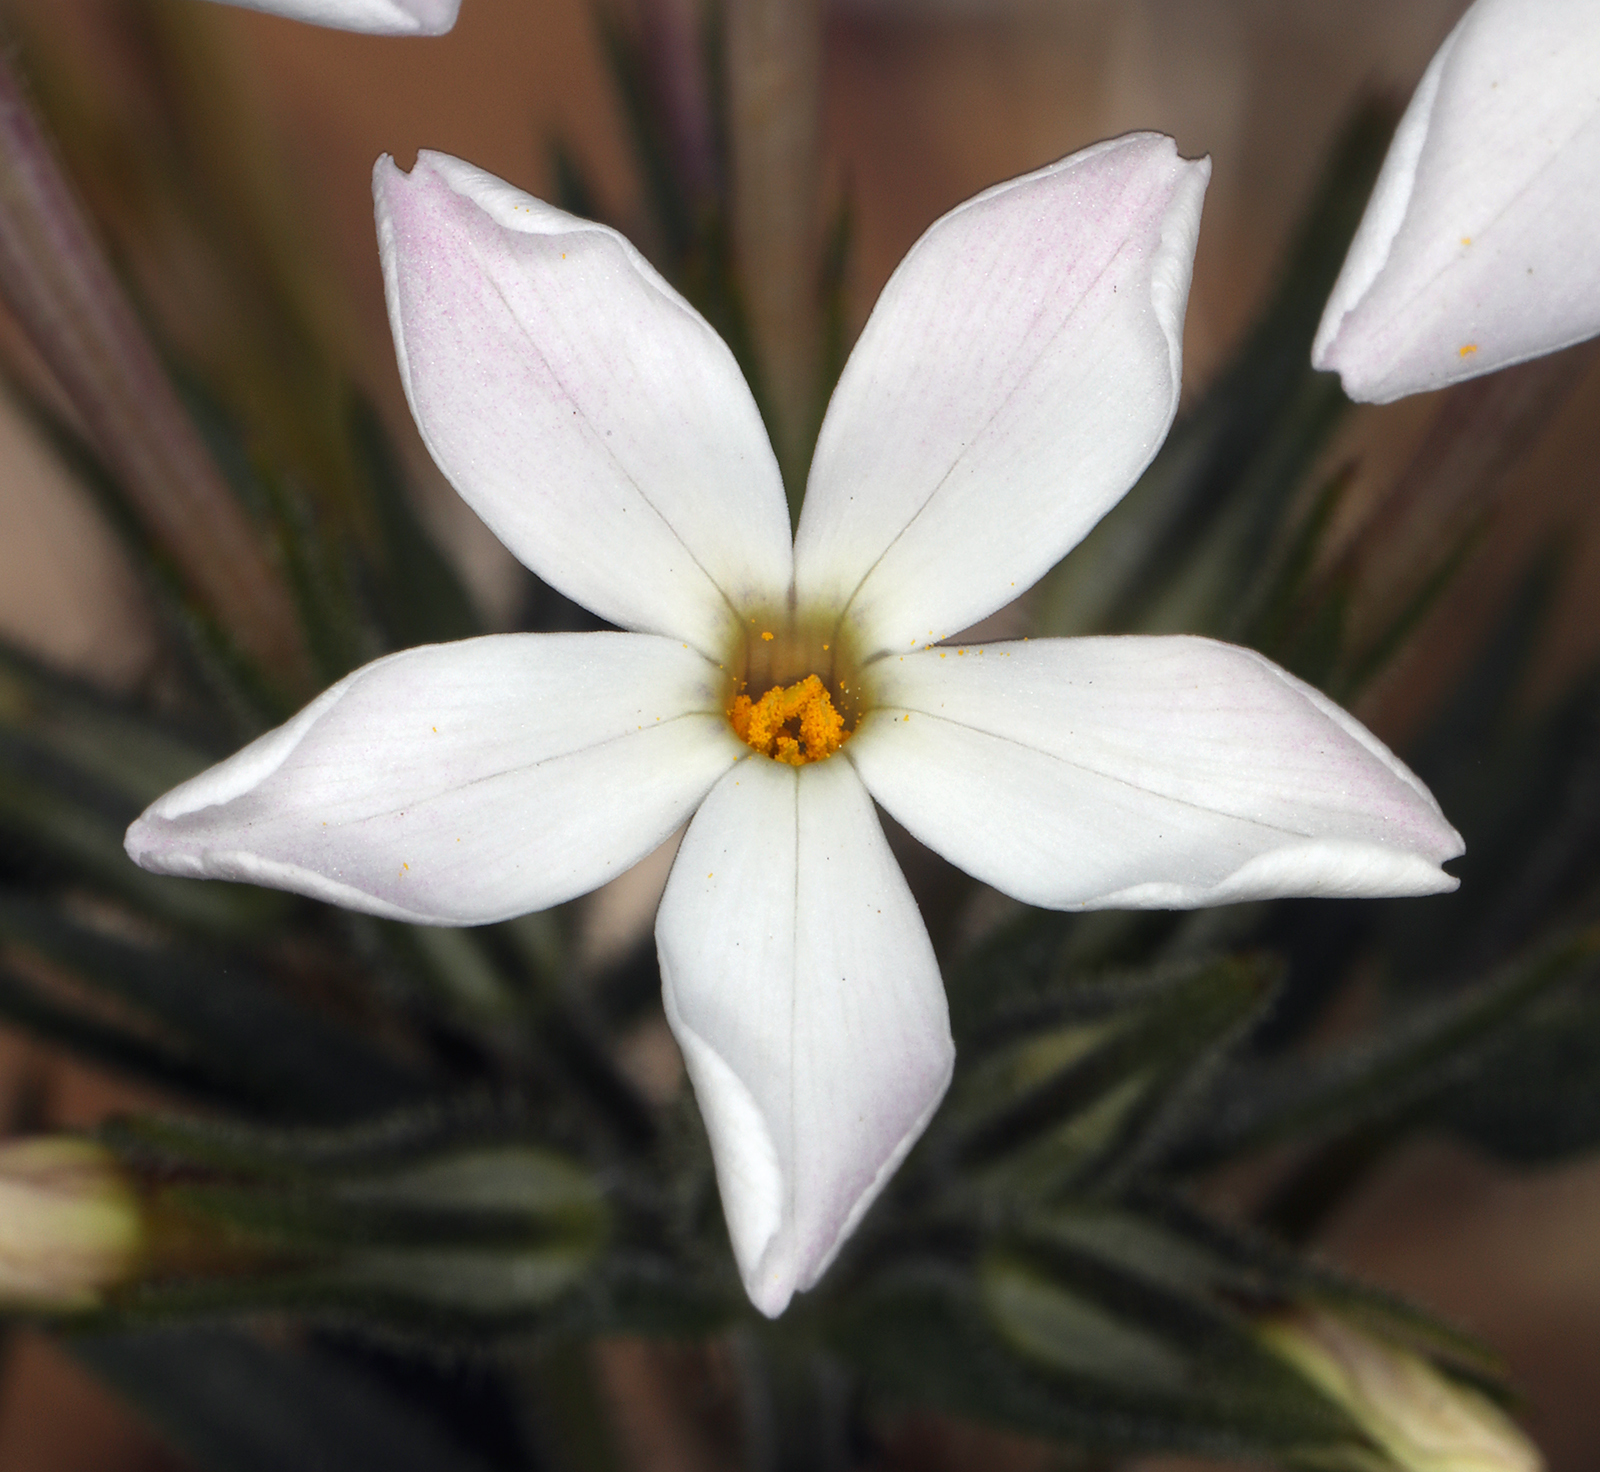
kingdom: Plantae
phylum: Tracheophyta
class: Magnoliopsida
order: Ericales
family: Polemoniaceae
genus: Phlox
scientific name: Phlox longifolia
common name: Longleaf phlox
